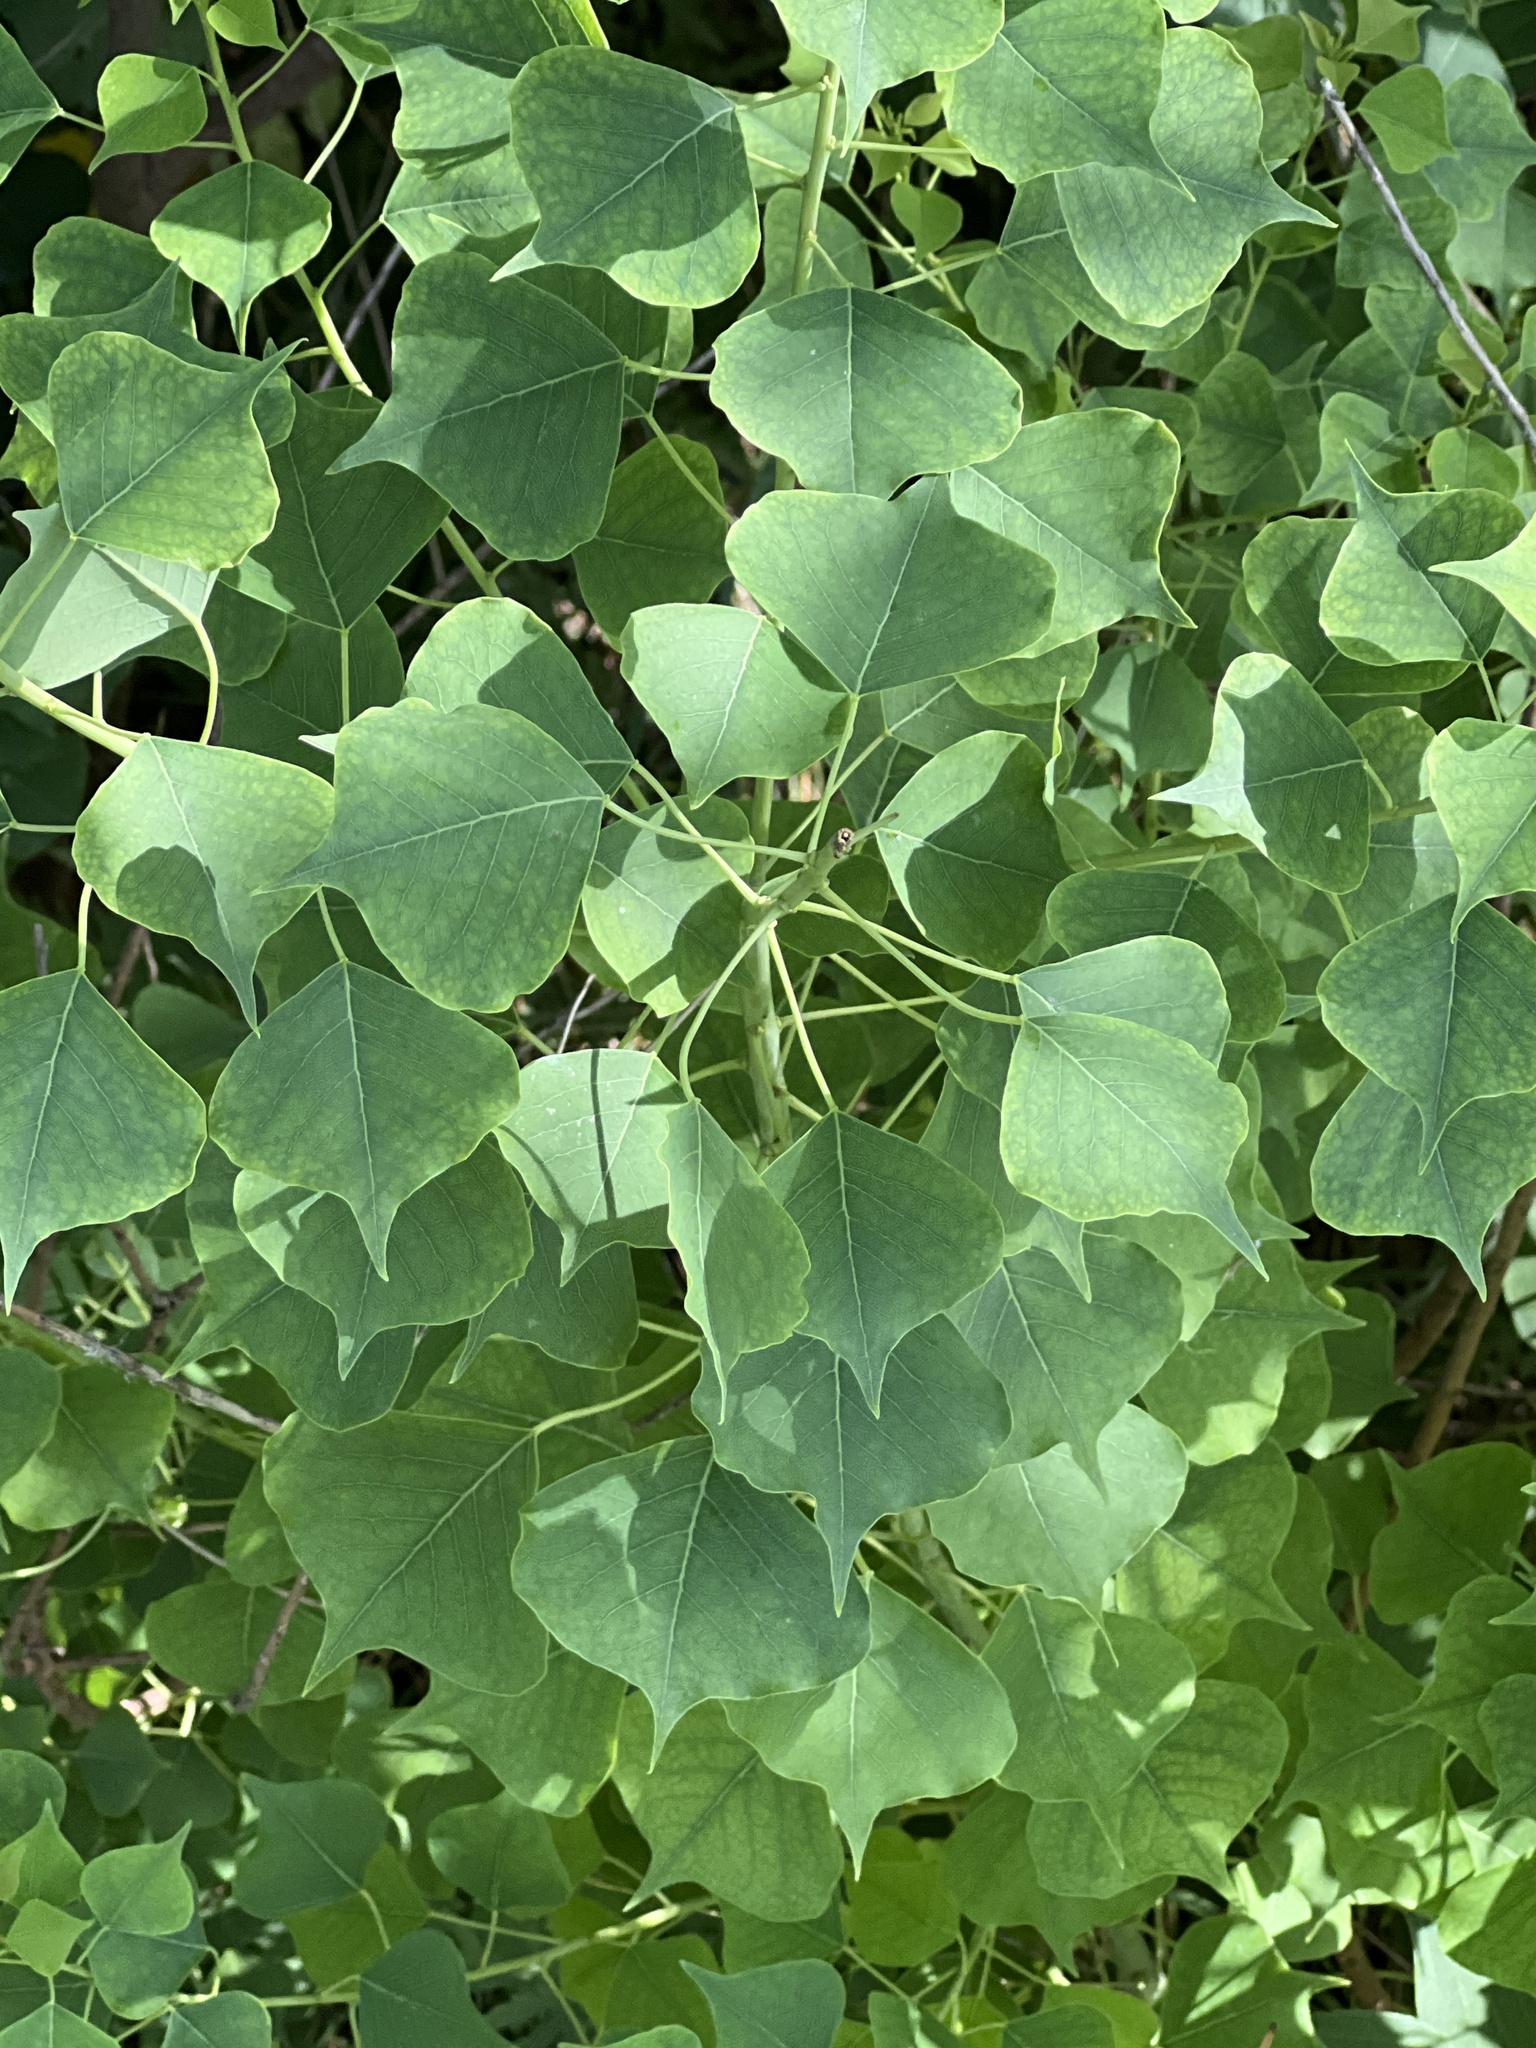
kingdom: Plantae
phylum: Tracheophyta
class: Magnoliopsida
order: Malpighiales
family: Euphorbiaceae
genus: Triadica
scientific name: Triadica sebifera
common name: Chinese tallow
